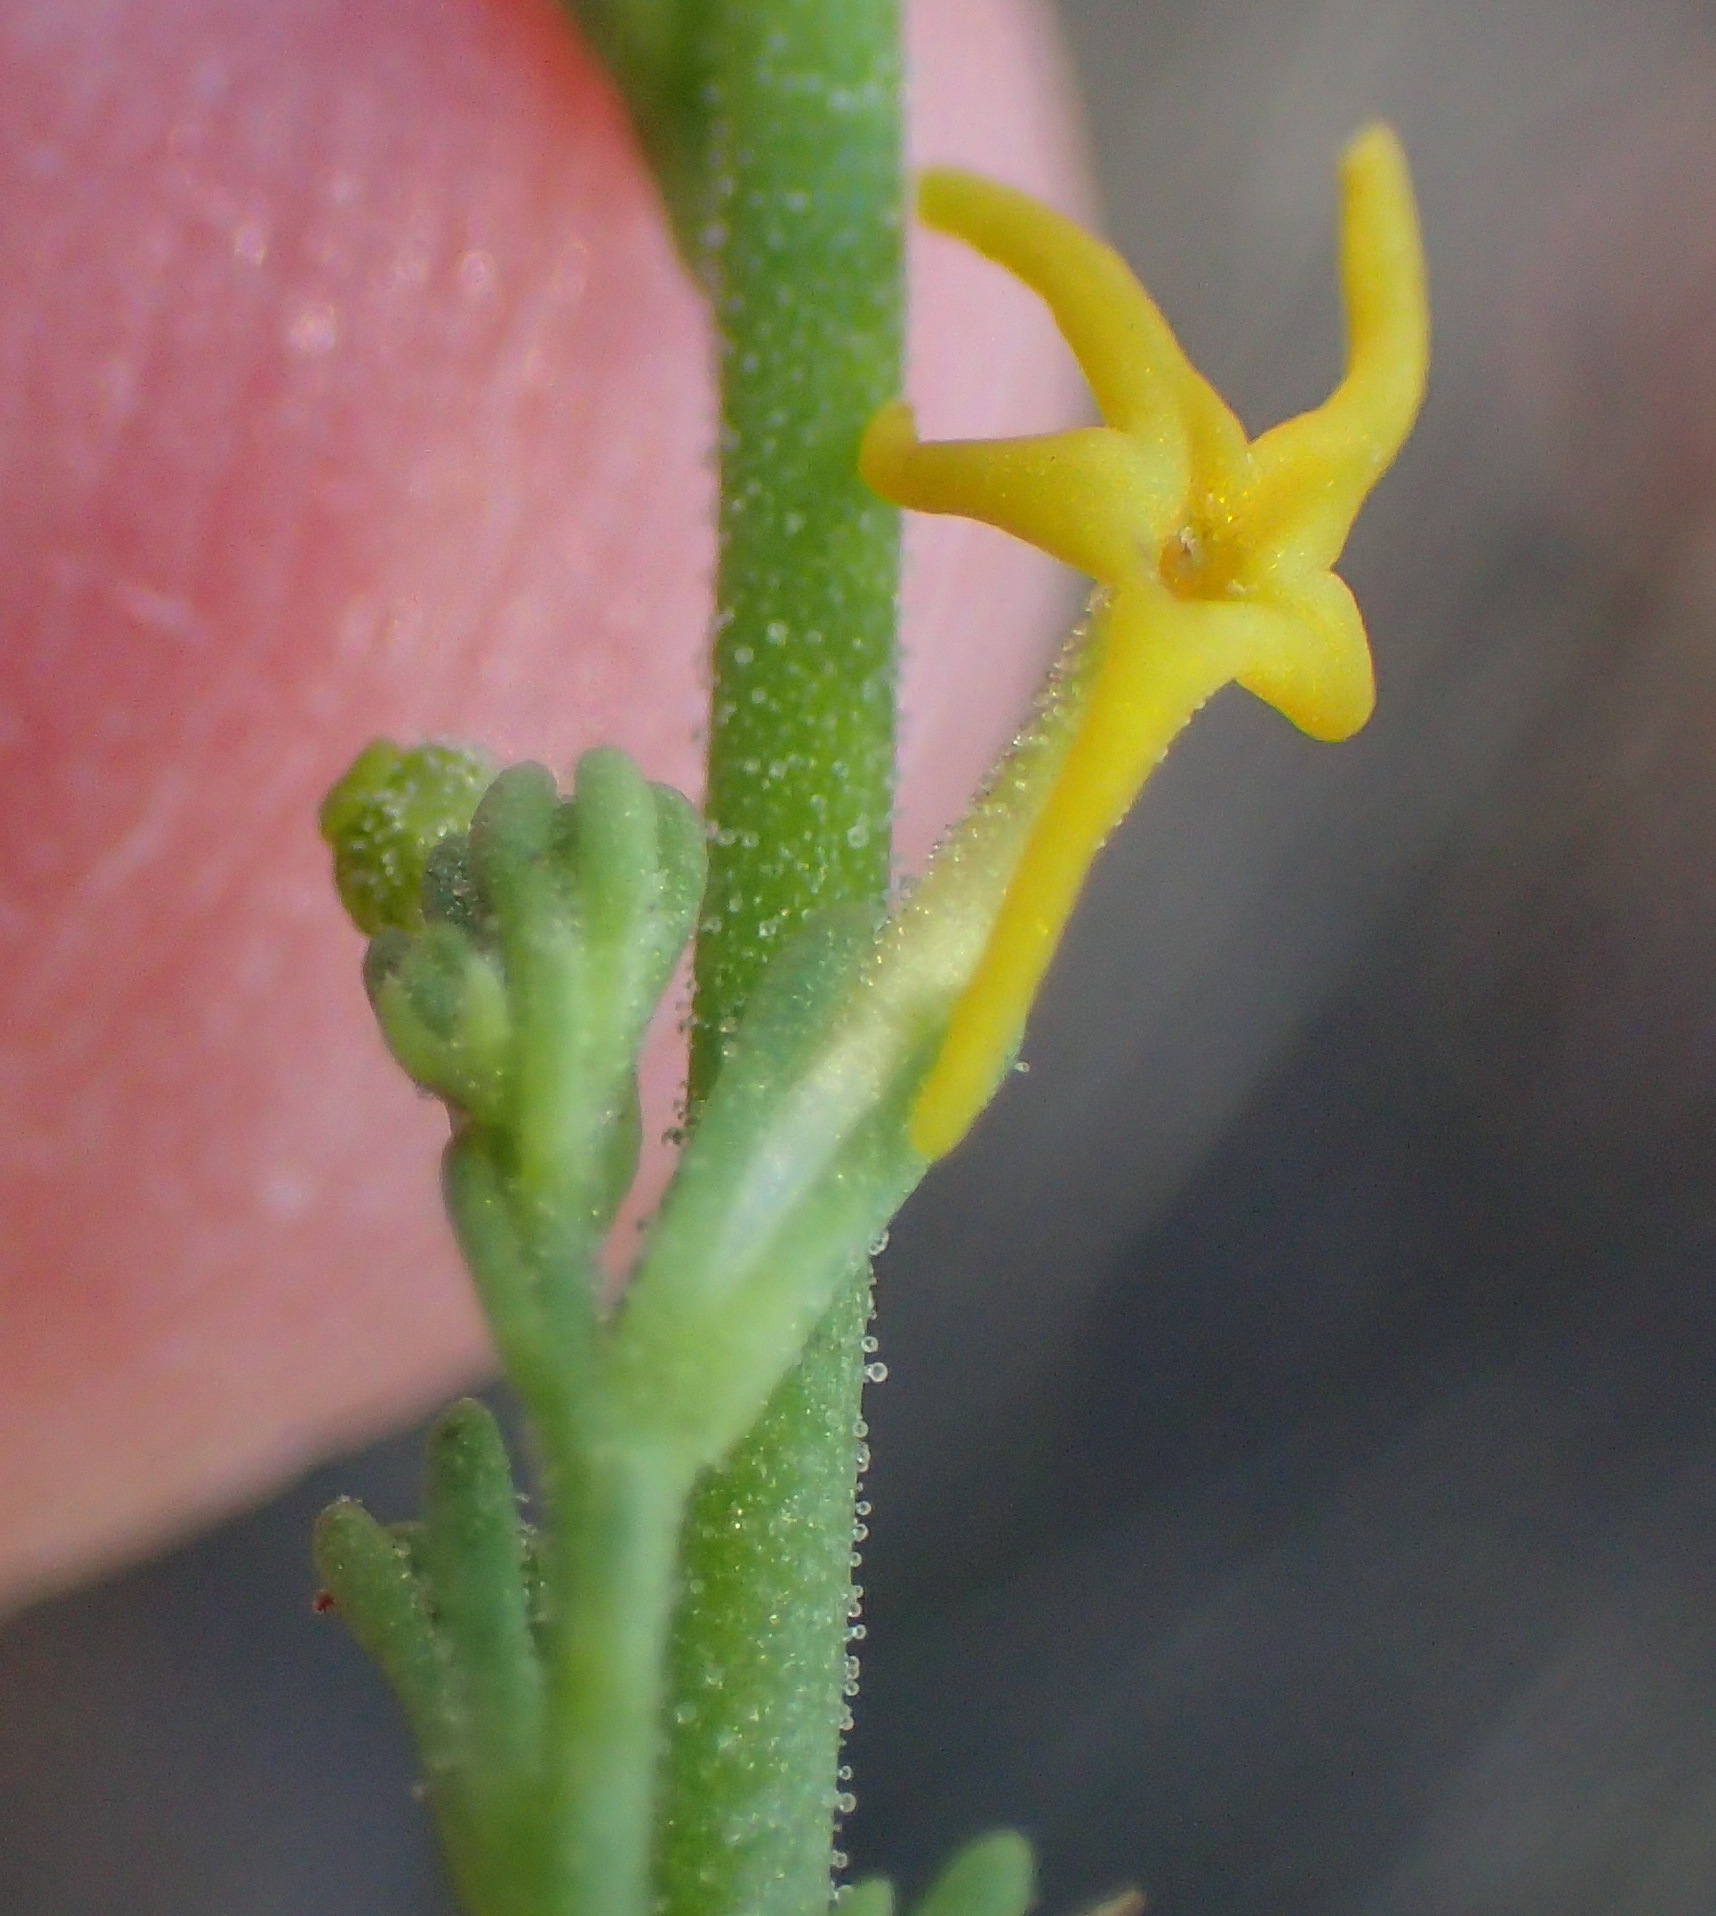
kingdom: Plantae
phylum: Tracheophyta
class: Magnoliopsida
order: Lamiales
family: Scrophulariaceae
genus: Manulea
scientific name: Manulea obovata
